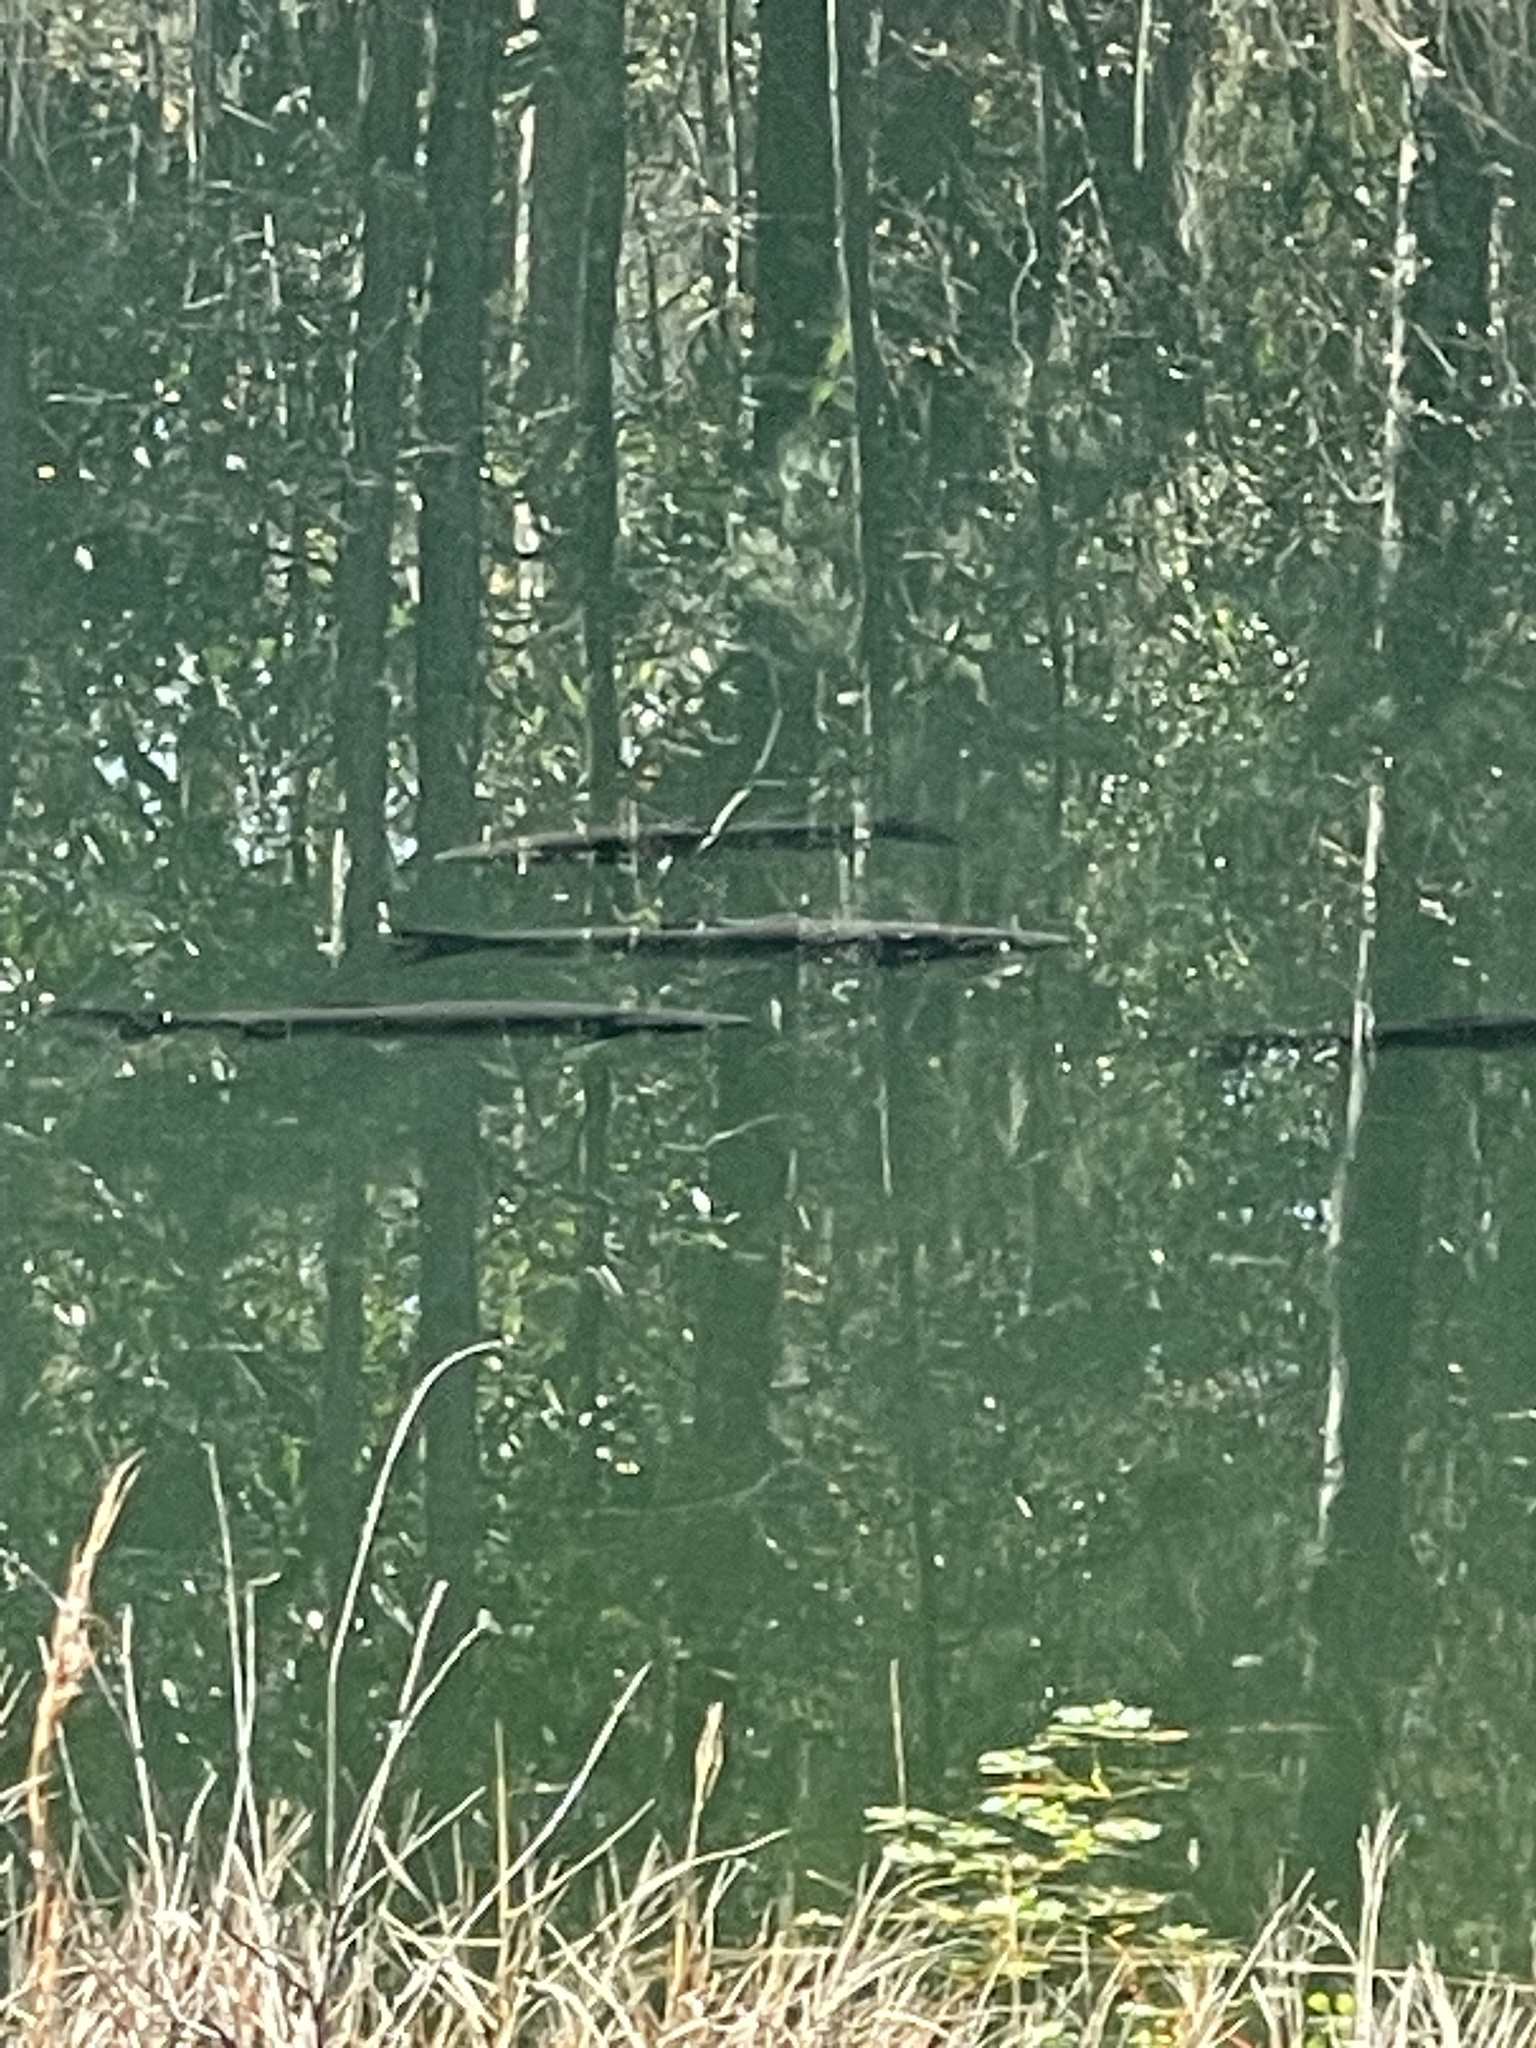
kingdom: Animalia
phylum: Chordata
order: Cypriniformes
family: Cyprinidae
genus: Ctenopharyngodon
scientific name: Ctenopharyngodon idella
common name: Grass carp
